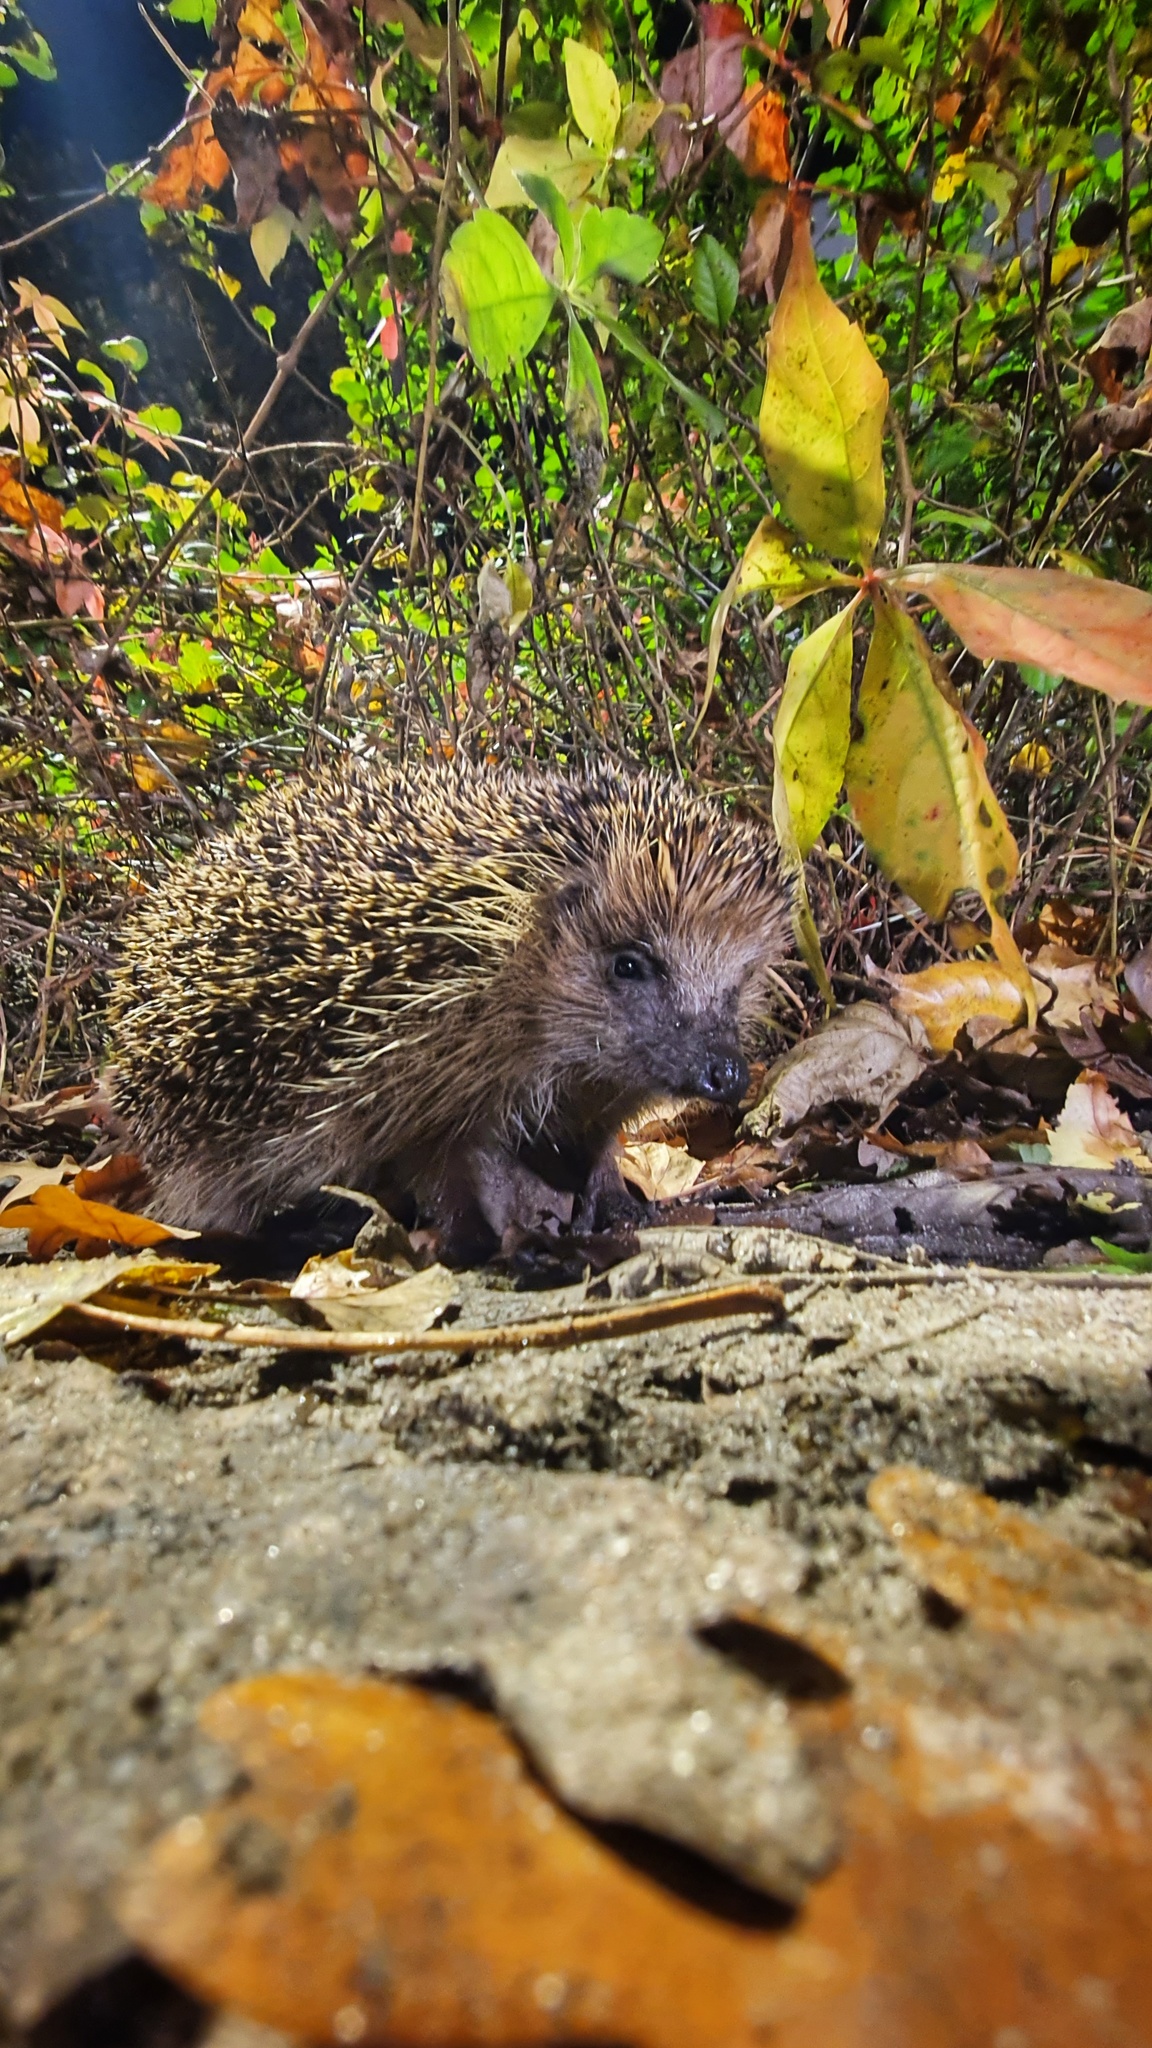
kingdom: Animalia
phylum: Chordata
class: Mammalia
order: Erinaceomorpha
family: Erinaceidae
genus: Erinaceus
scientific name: Erinaceus europaeus
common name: West european hedgehog
